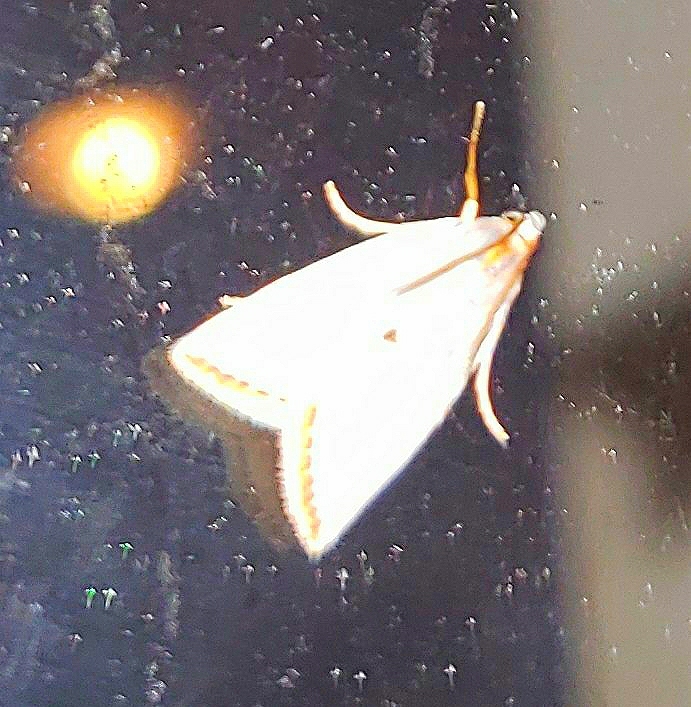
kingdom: Animalia
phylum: Arthropoda
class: Insecta
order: Lepidoptera
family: Crambidae
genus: Argyria
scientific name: Argyria nivalis
